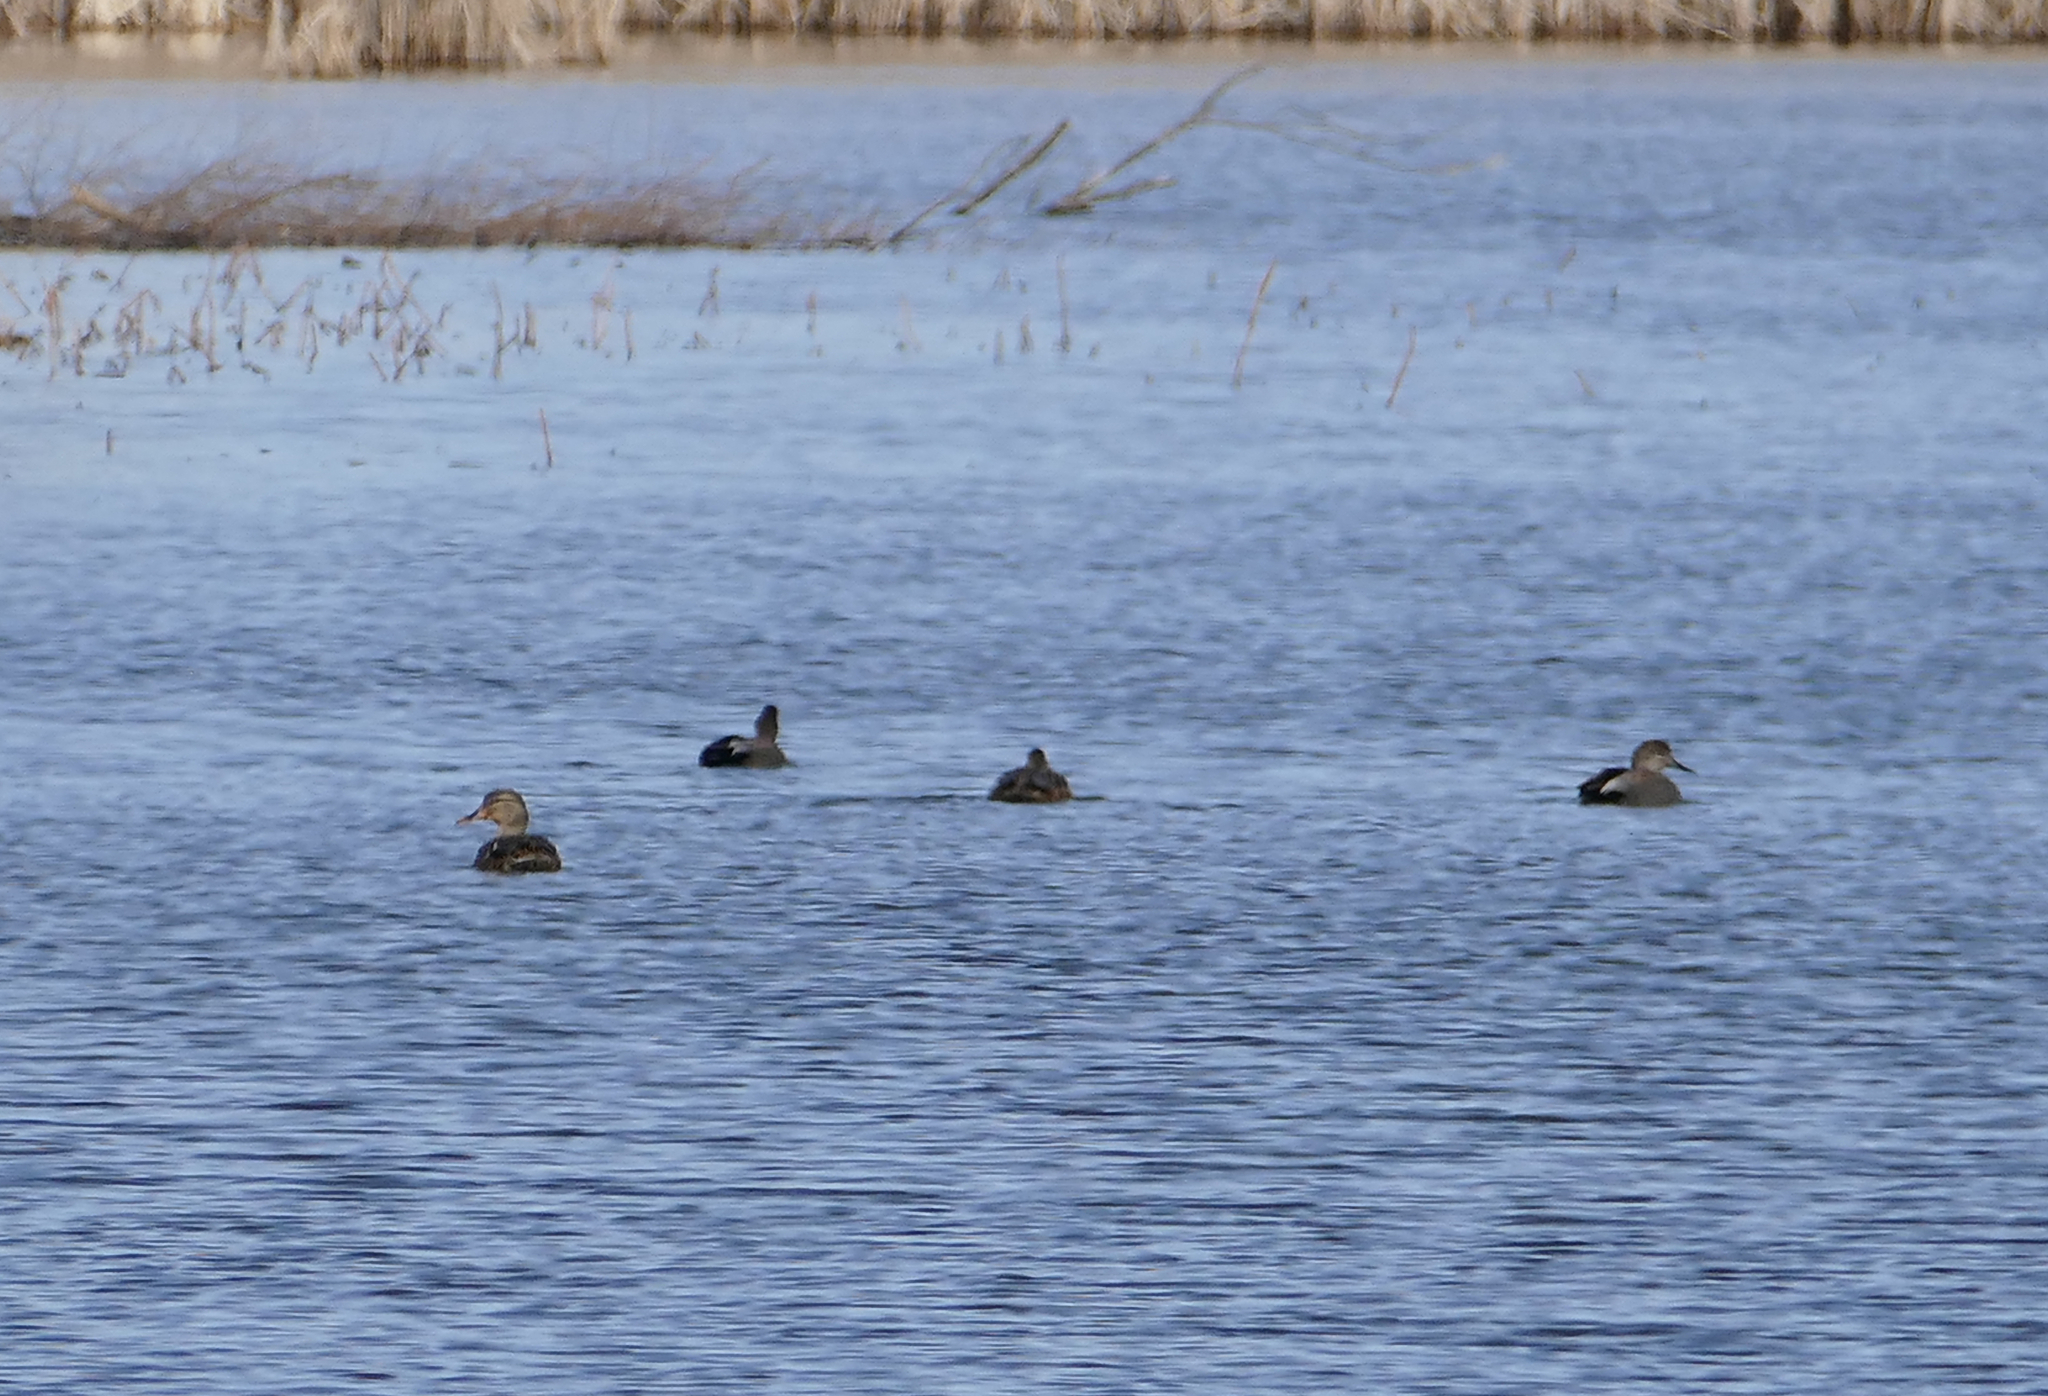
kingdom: Animalia
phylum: Chordata
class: Aves
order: Anseriformes
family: Anatidae
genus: Mareca
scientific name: Mareca strepera
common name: Gadwall
